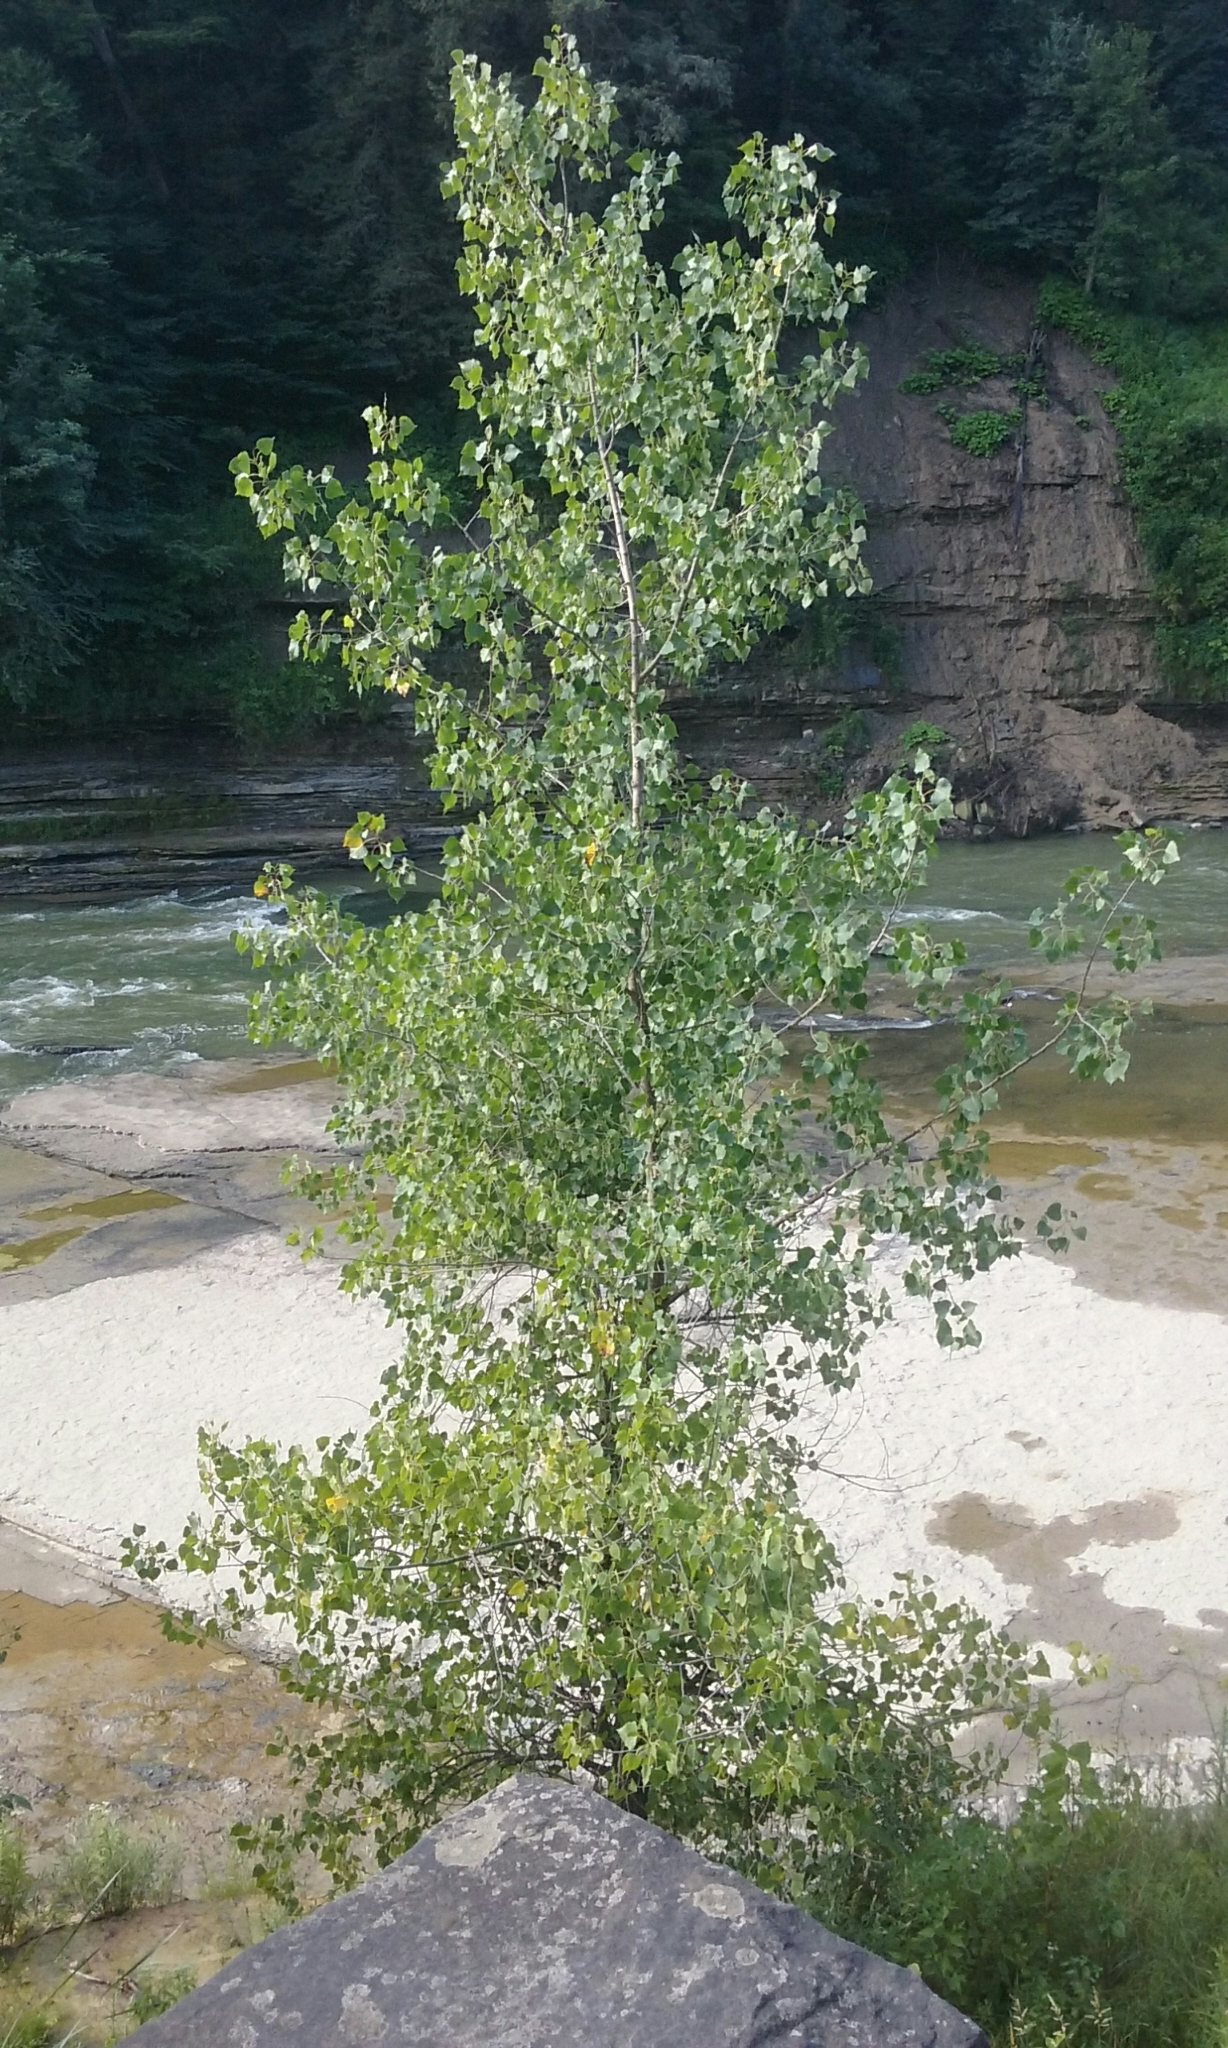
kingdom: Plantae
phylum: Tracheophyta
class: Magnoliopsida
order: Malpighiales
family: Salicaceae
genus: Populus
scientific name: Populus deltoides
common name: Eastern cottonwood
